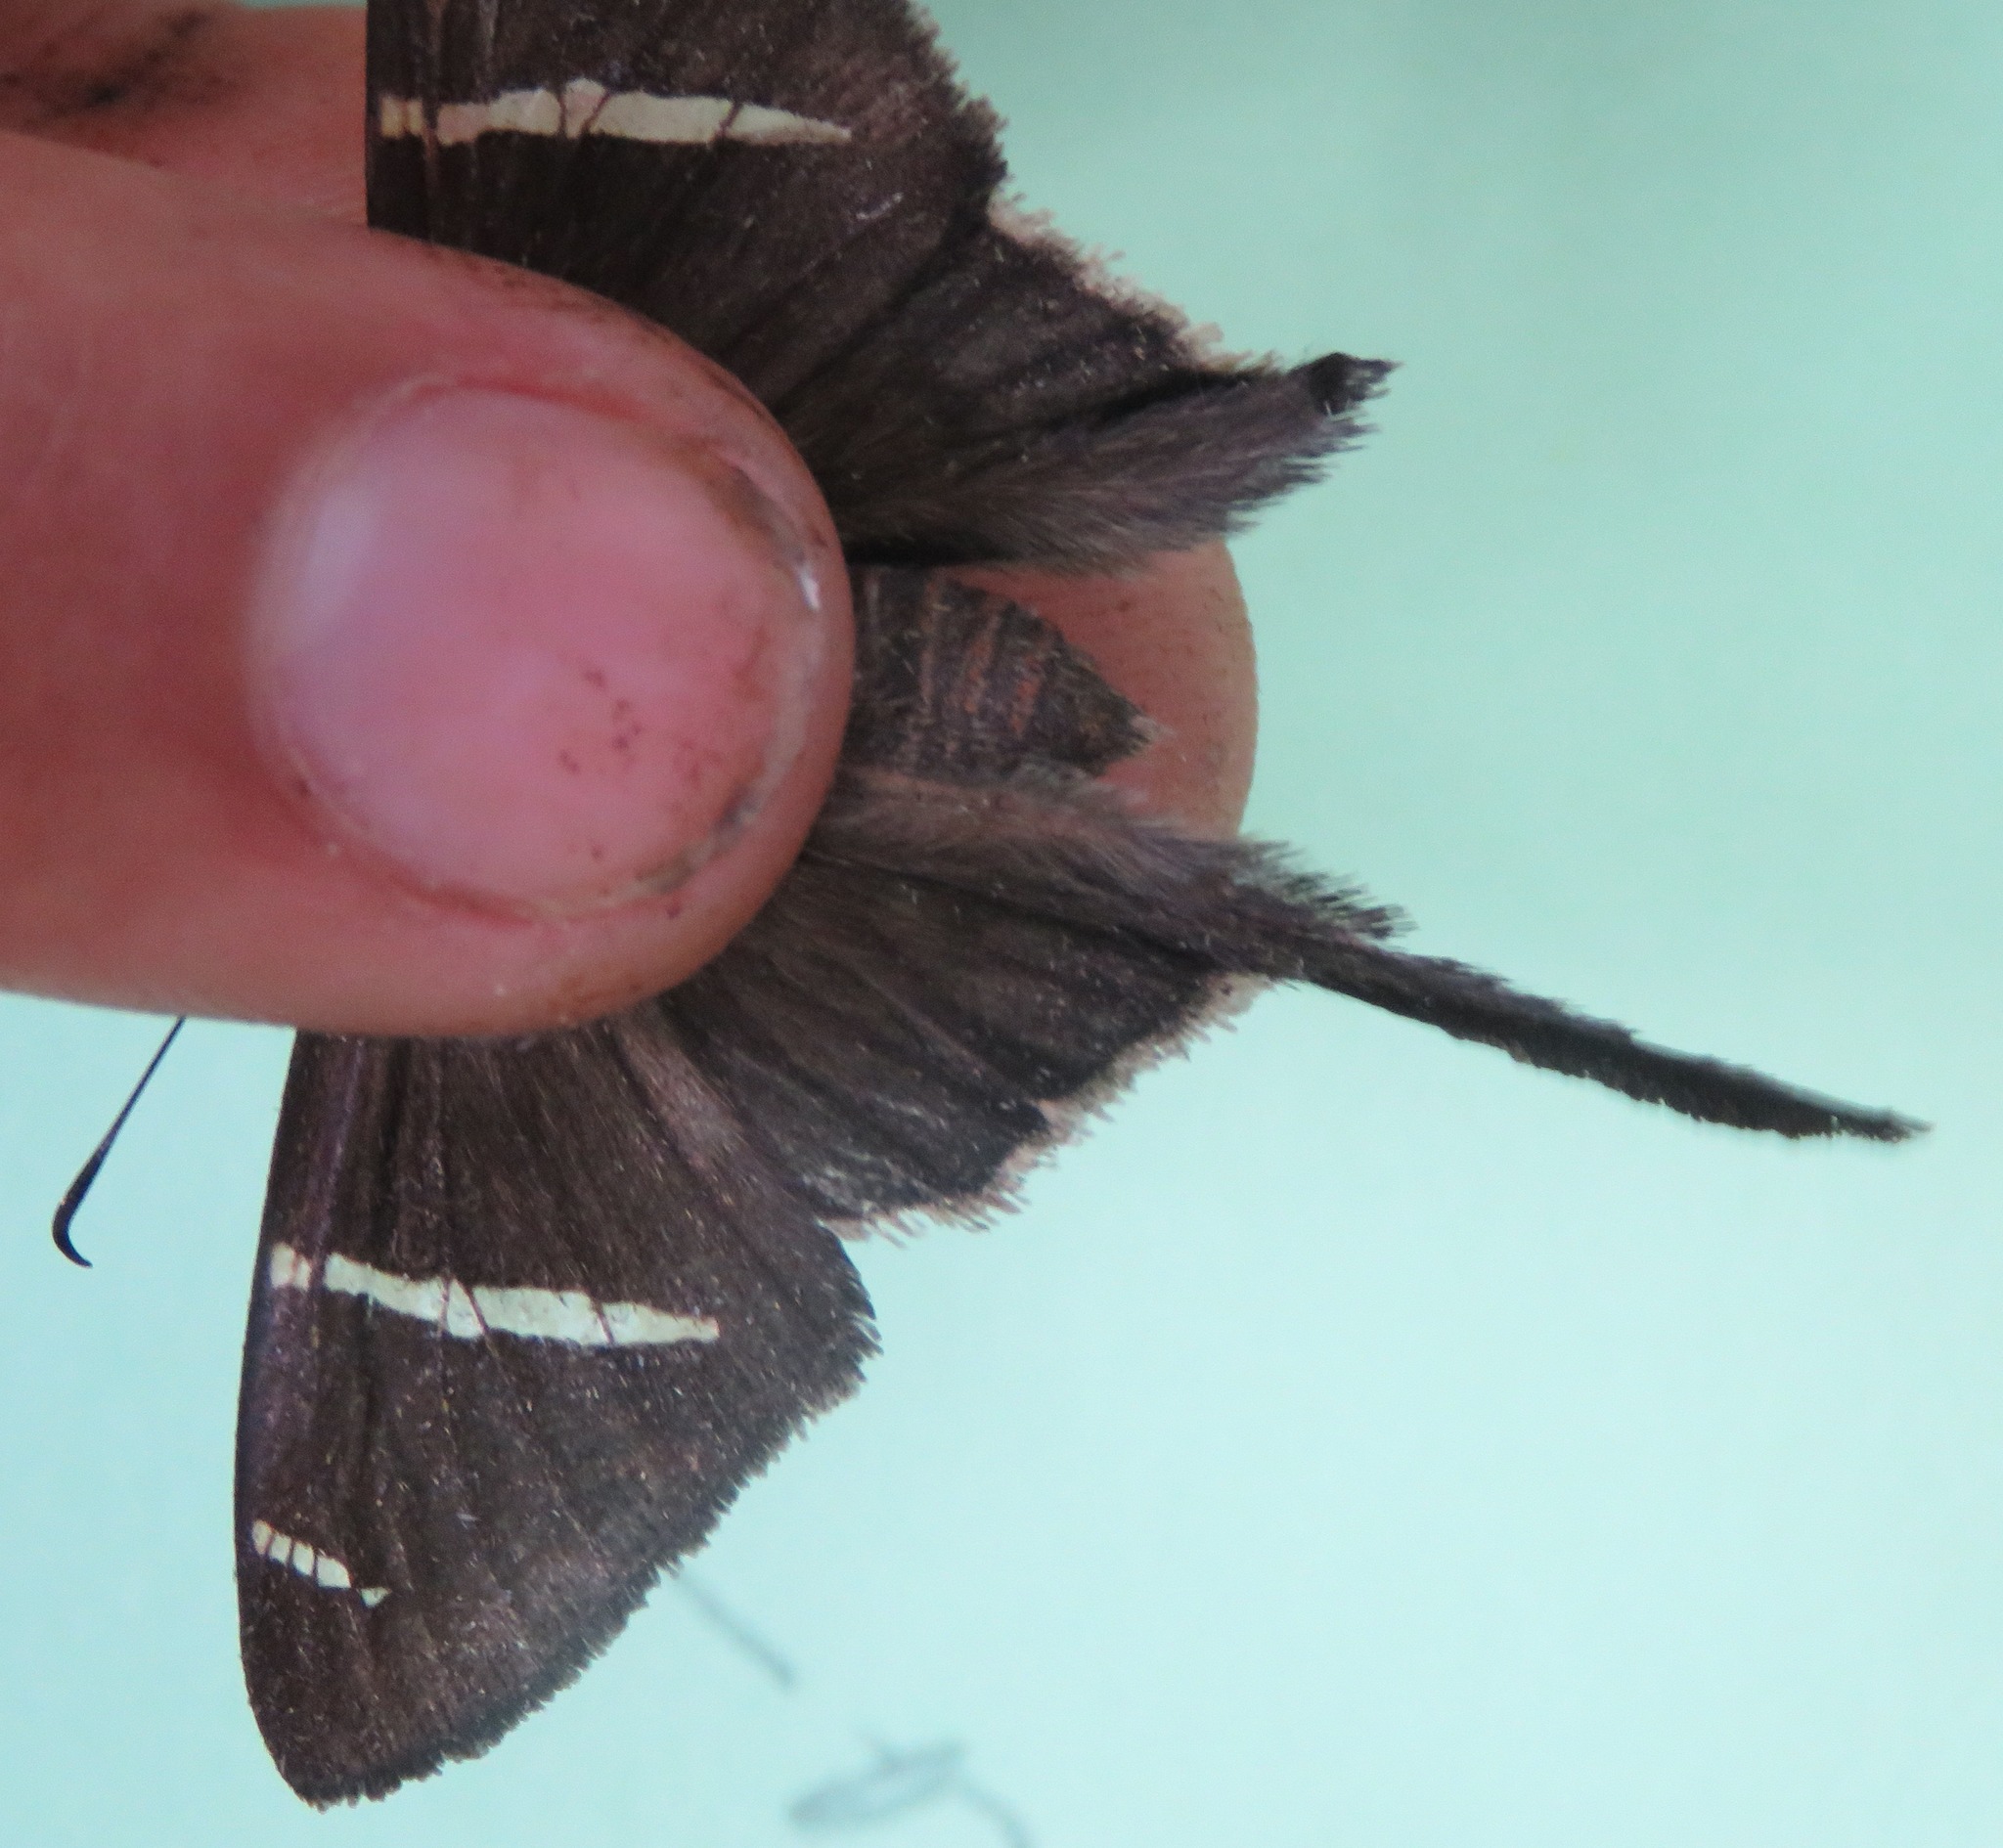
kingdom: Animalia
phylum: Arthropoda
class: Insecta
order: Lepidoptera
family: Hesperiidae
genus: Urbanus
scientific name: Urbanus tanna
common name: Tanna longtail
